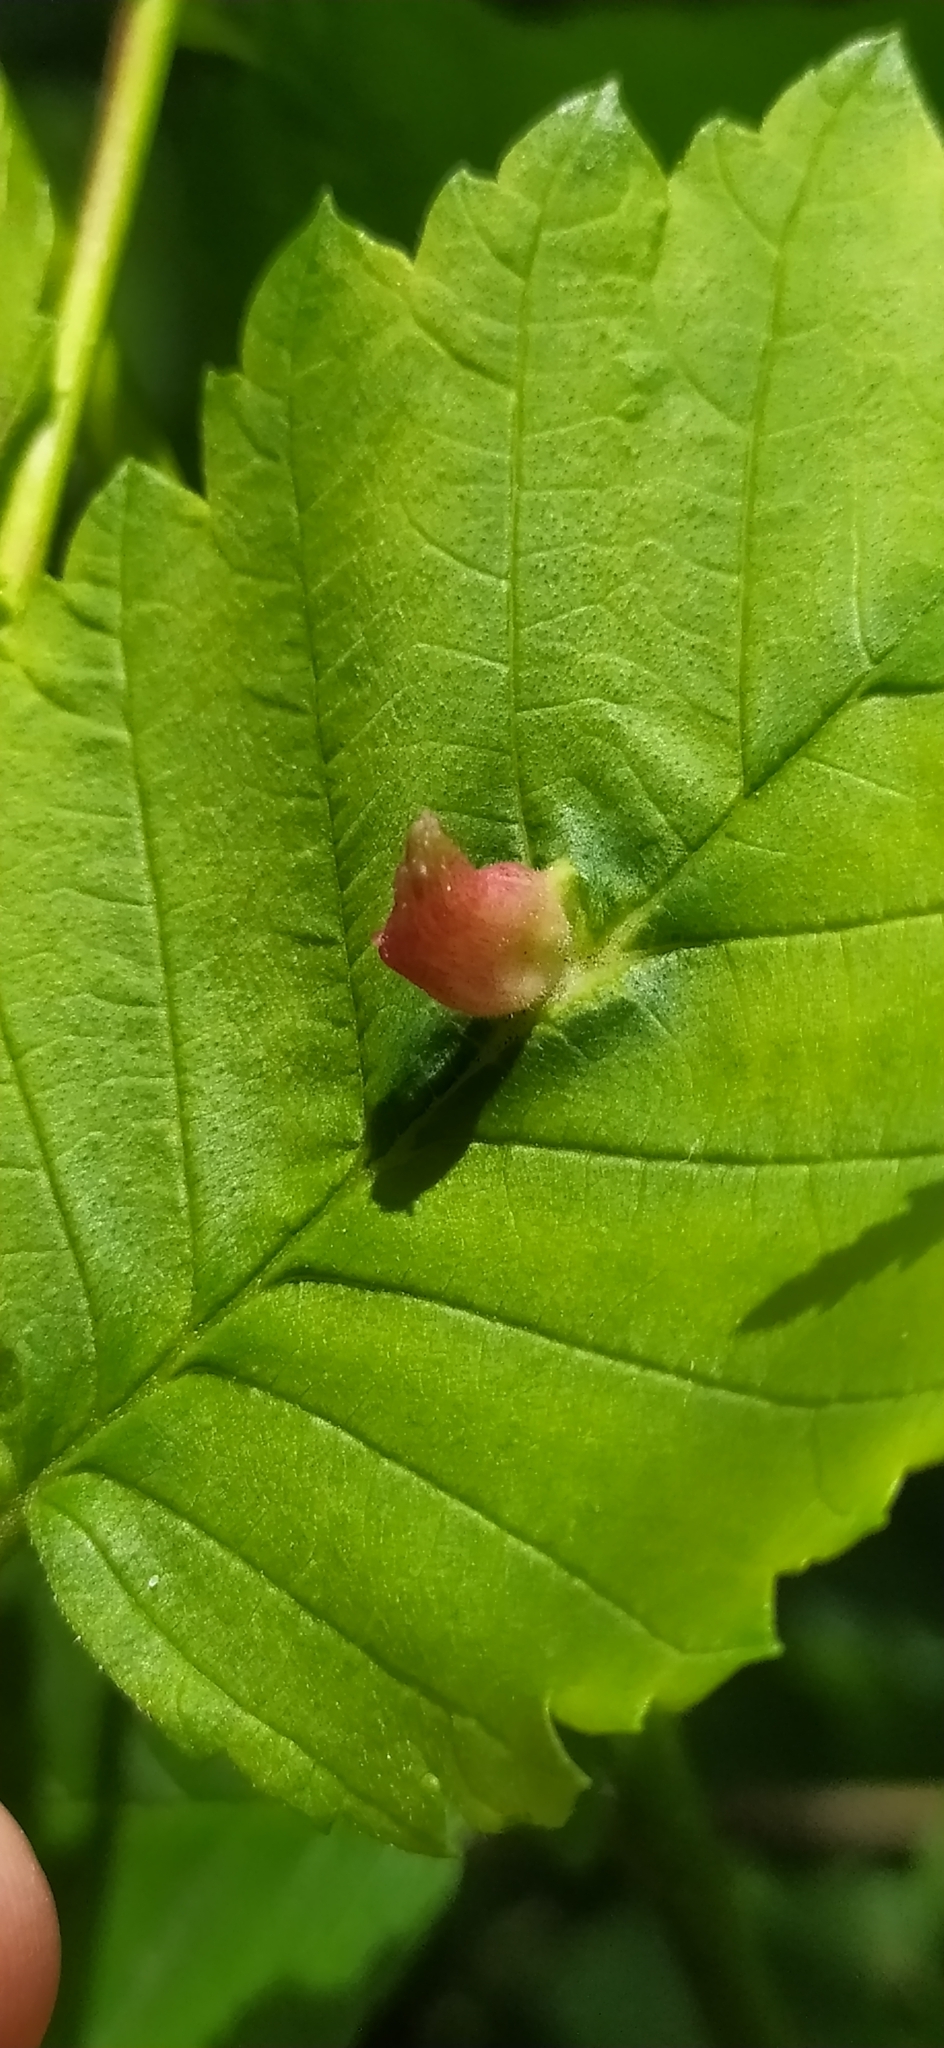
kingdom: Animalia
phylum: Arthropoda
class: Insecta
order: Hemiptera
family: Aphididae
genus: Colopha
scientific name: Colopha compressa
